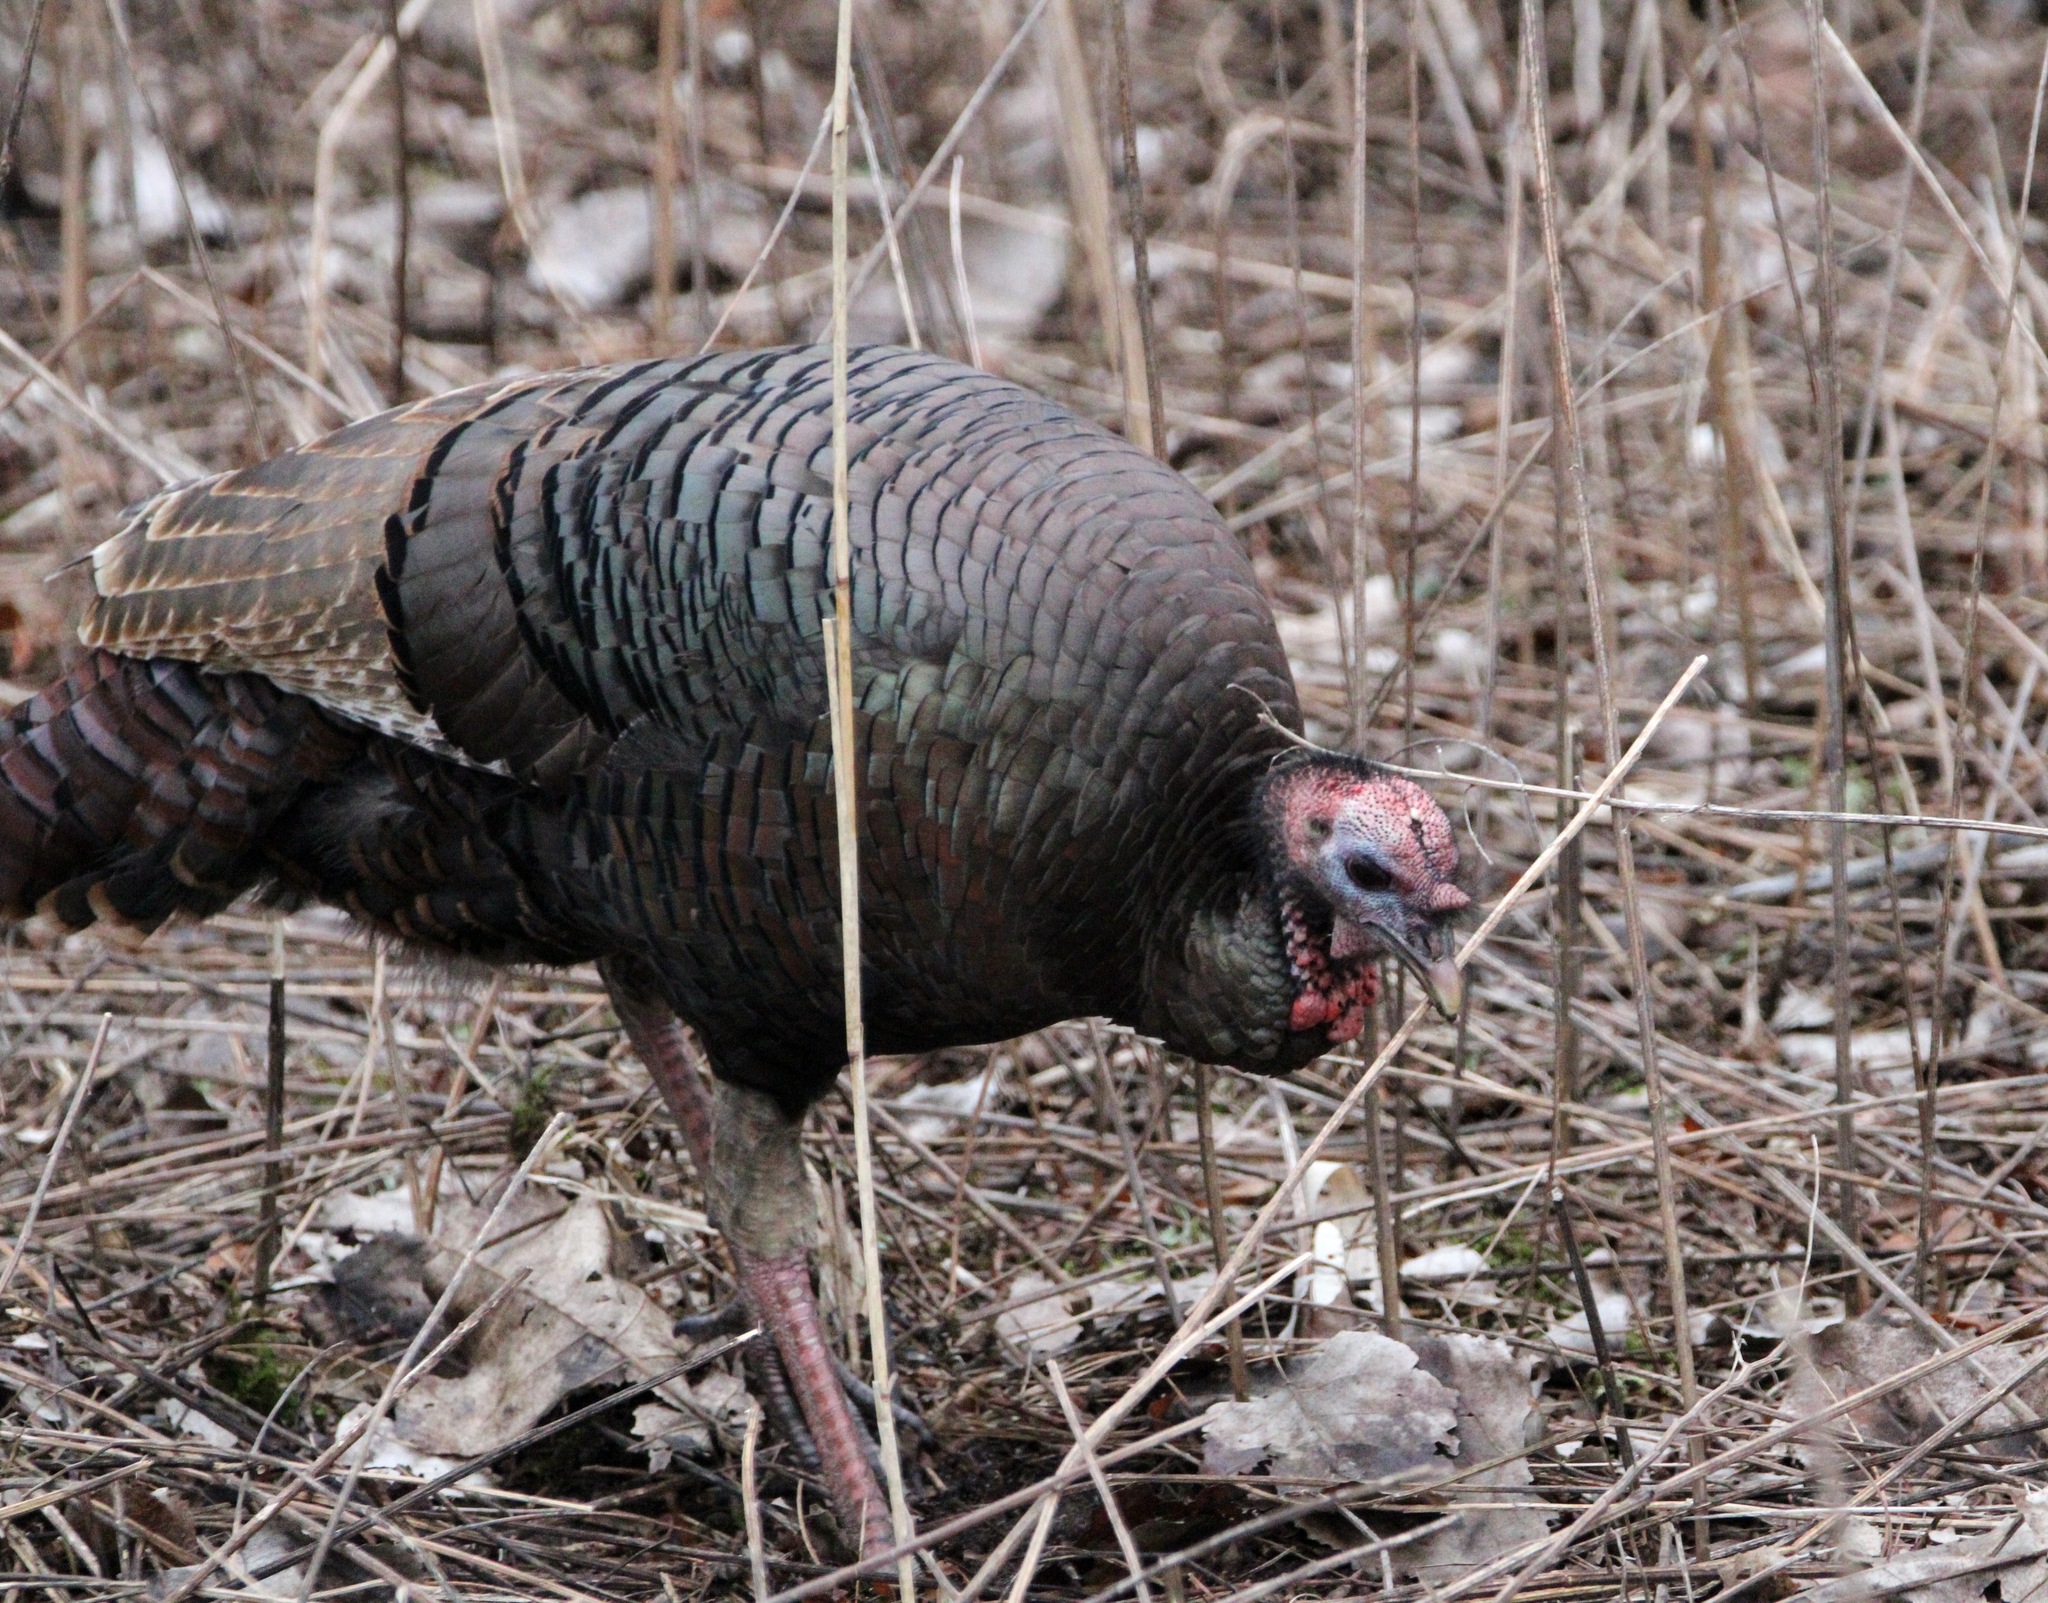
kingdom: Animalia
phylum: Chordata
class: Aves
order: Galliformes
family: Phasianidae
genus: Meleagris
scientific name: Meleagris gallopavo
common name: Wild turkey
